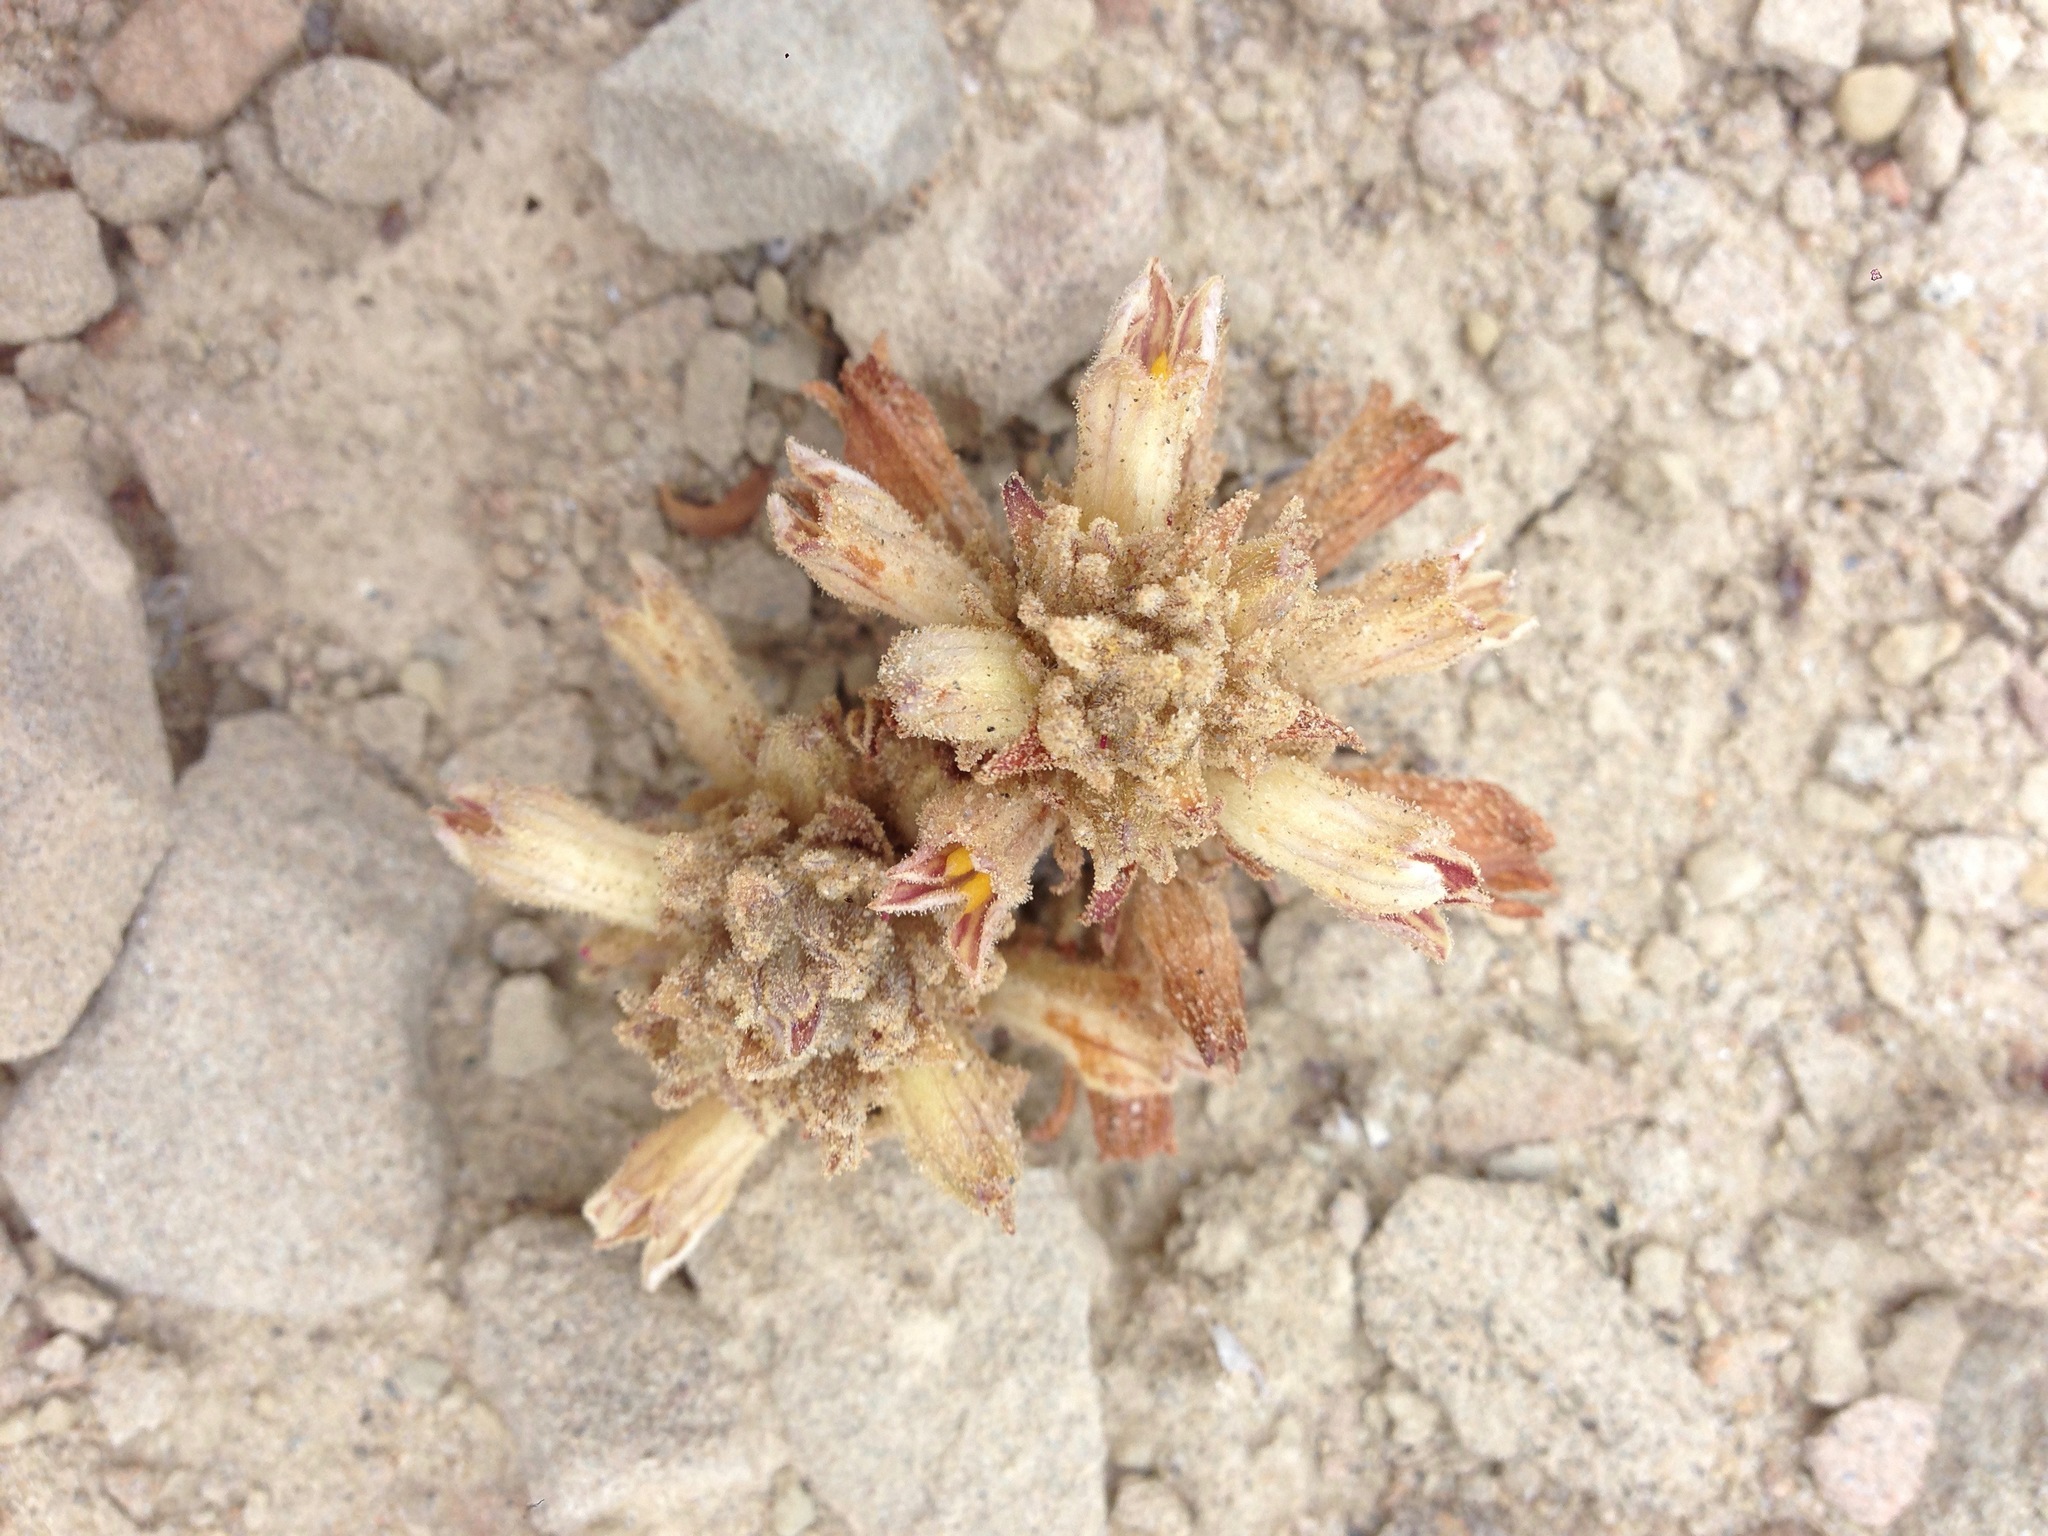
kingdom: Plantae
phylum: Tracheophyta
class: Magnoliopsida
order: Lamiales
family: Orobanchaceae
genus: Aphyllon
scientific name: Aphyllon parishii
